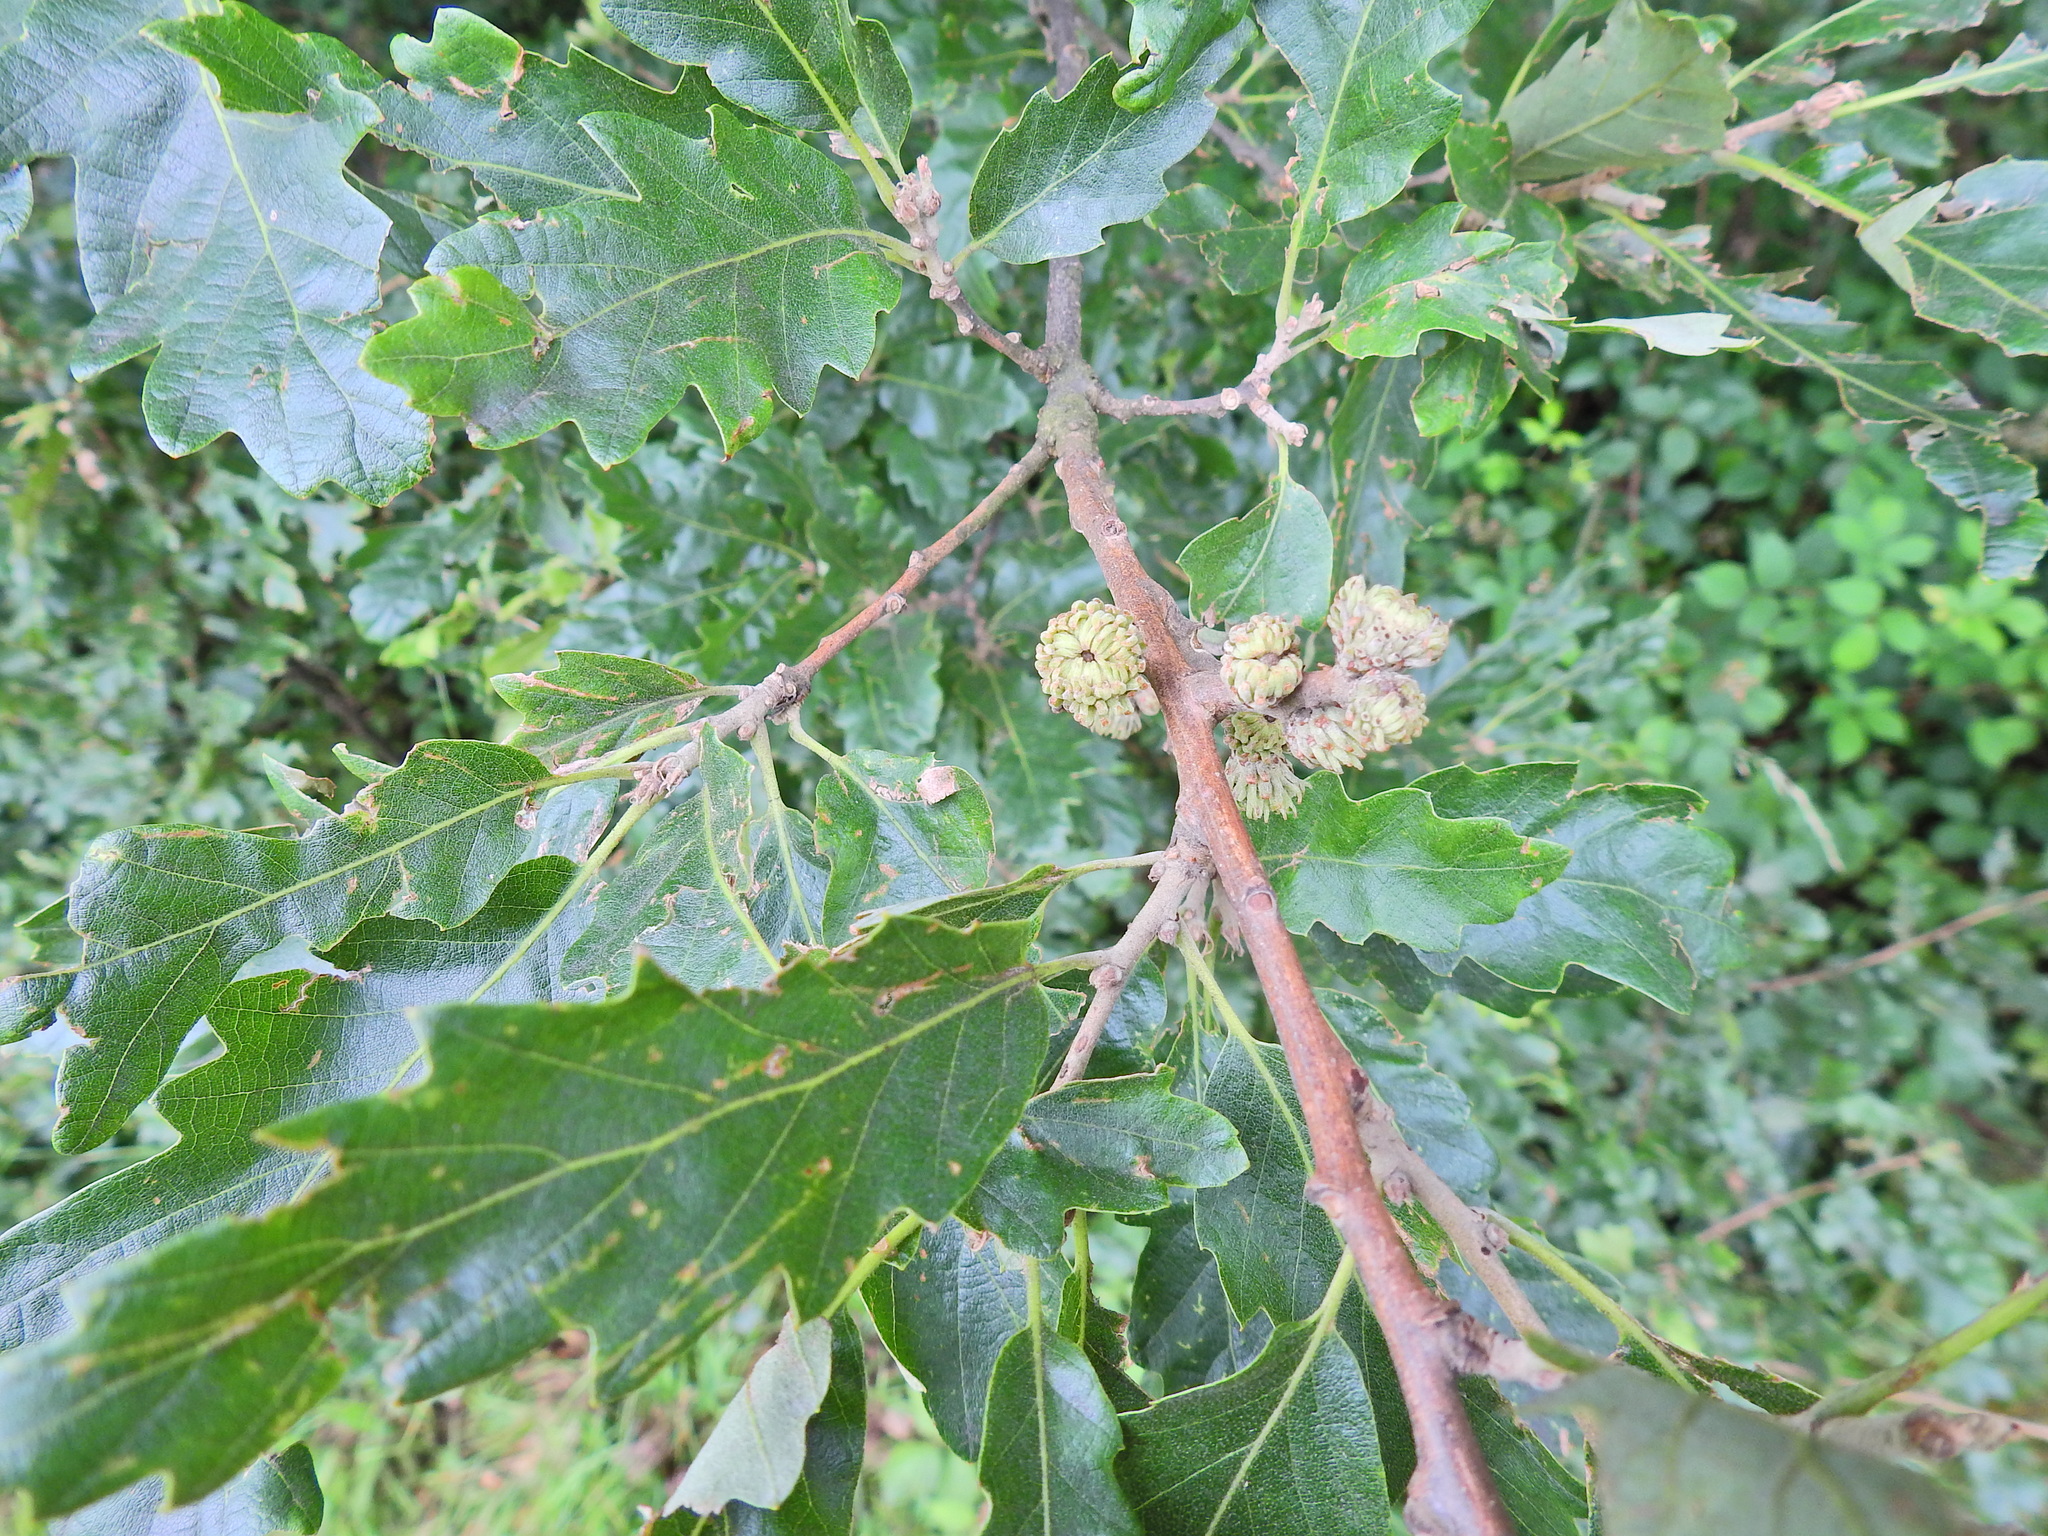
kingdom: Plantae
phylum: Tracheophyta
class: Magnoliopsida
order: Fagales
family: Fagaceae
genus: Quercus
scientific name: Quercus cerris
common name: Turkey oak
